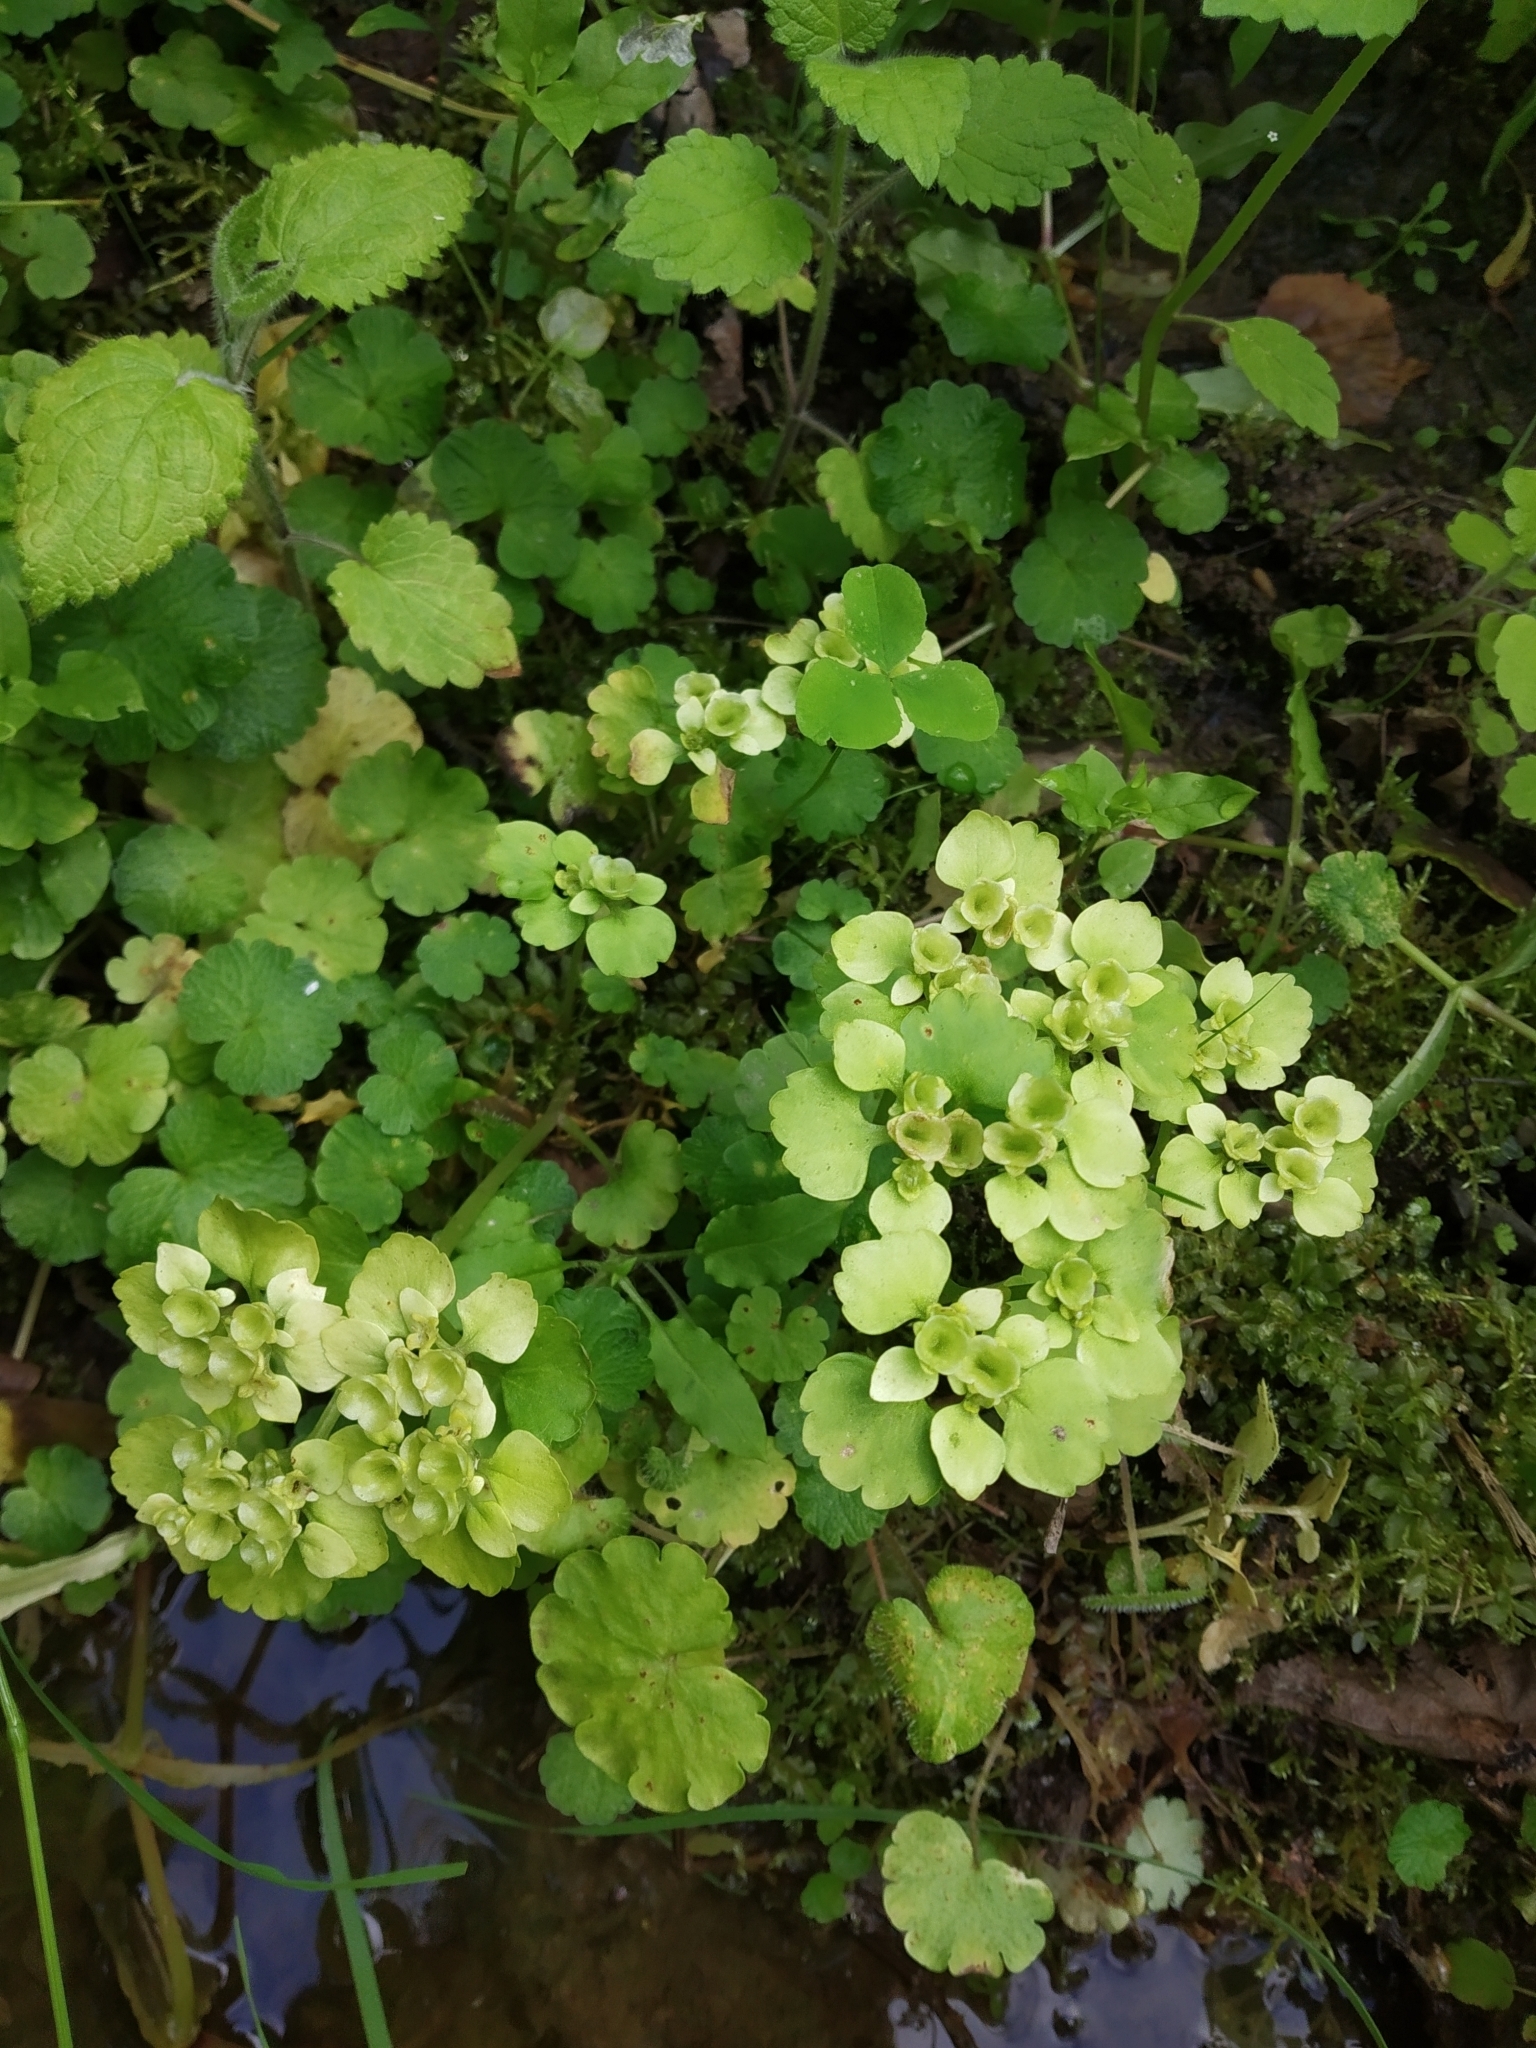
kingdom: Plantae
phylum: Tracheophyta
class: Magnoliopsida
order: Saxifragales
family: Saxifragaceae
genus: Chrysosplenium
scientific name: Chrysosplenium alternifolium
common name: Alternate-leaved golden-saxifrage
